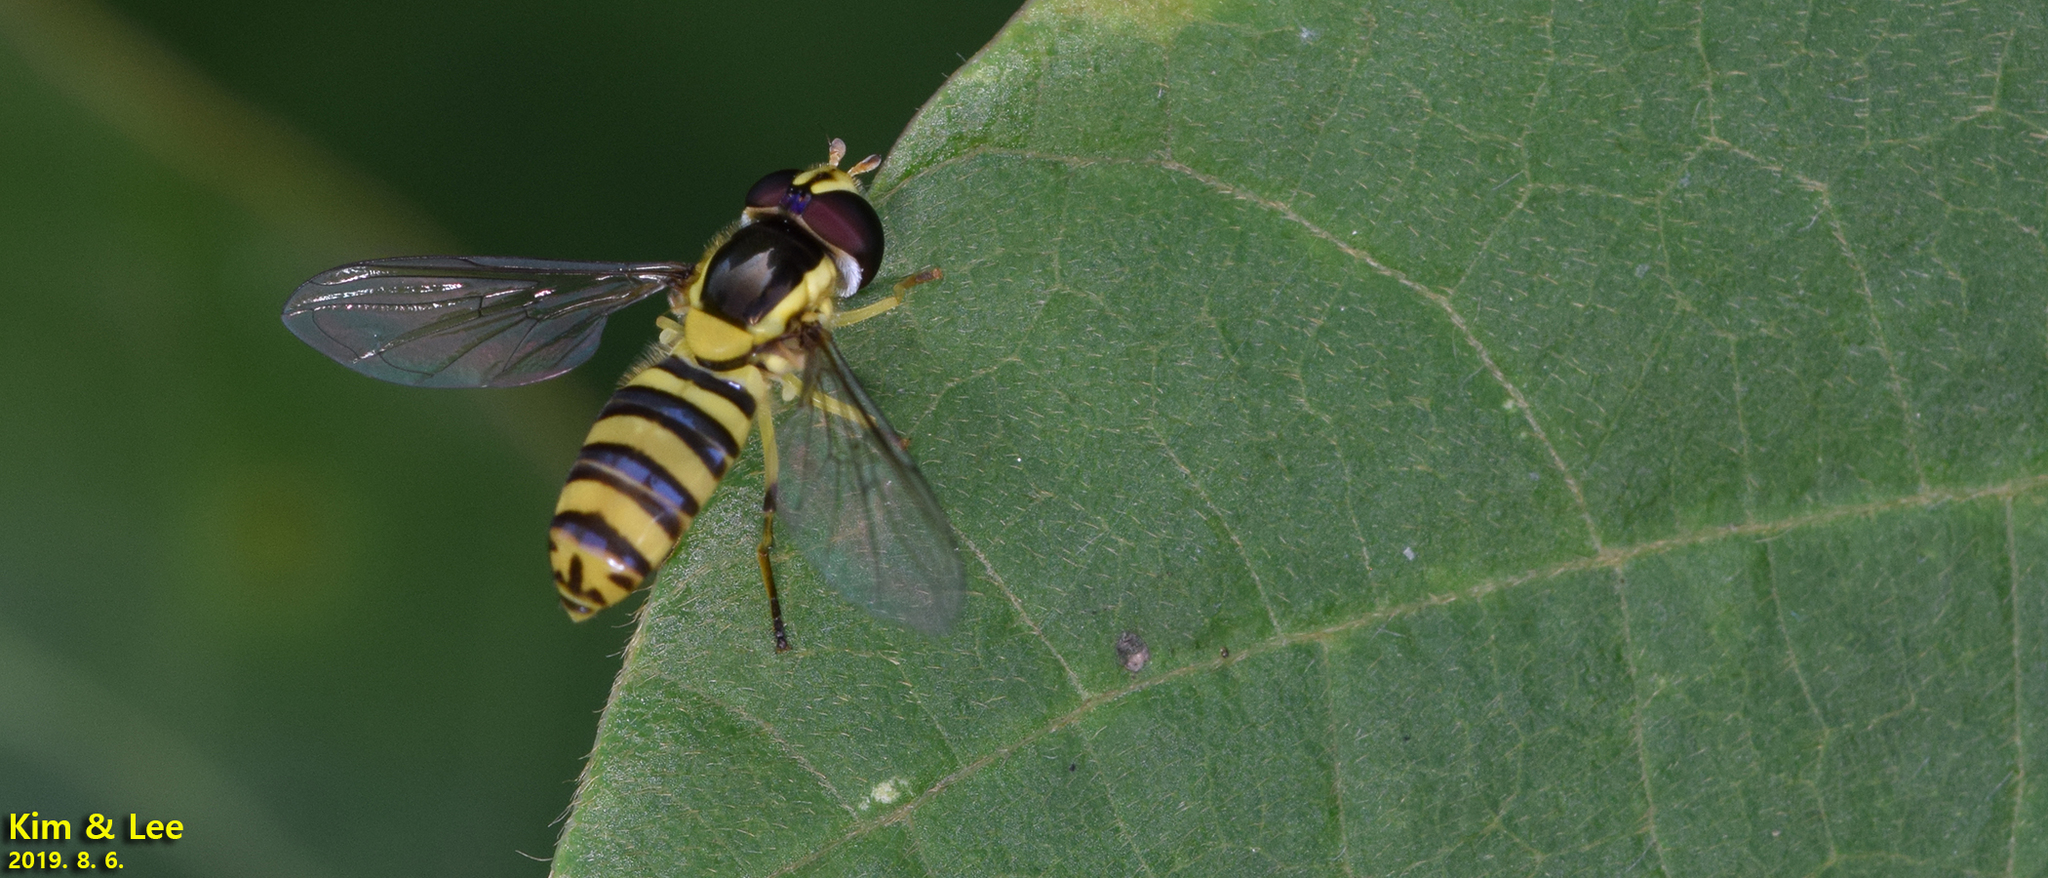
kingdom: Animalia
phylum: Arthropoda
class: Insecta
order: Diptera
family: Syrphidae
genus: Allograpta
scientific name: Allograpta javana
